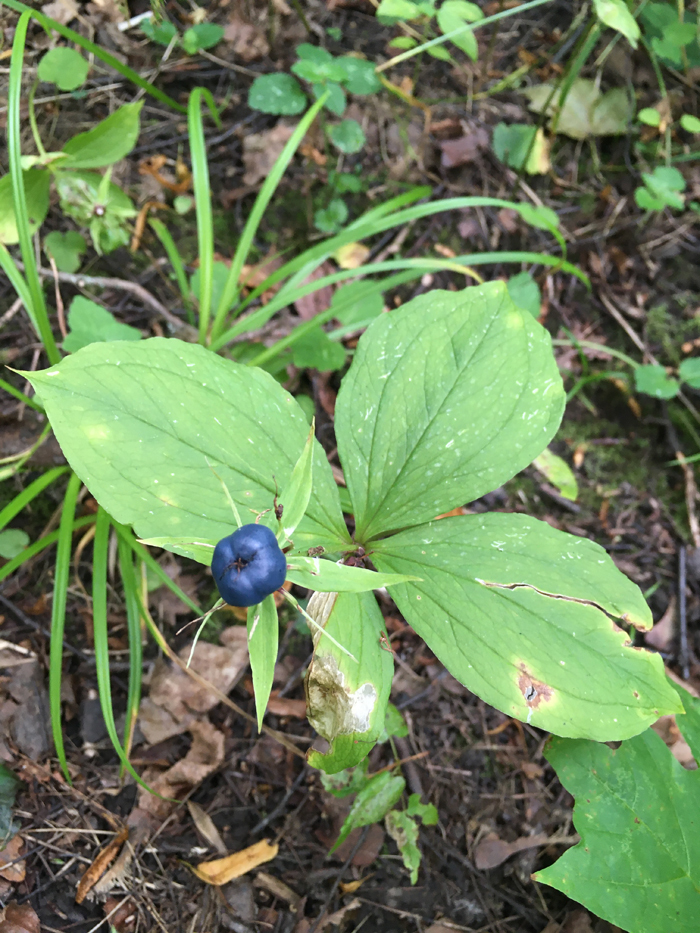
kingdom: Plantae
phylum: Tracheophyta
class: Liliopsida
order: Liliales
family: Melanthiaceae
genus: Paris
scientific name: Paris quadrifolia
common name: Herb-paris
